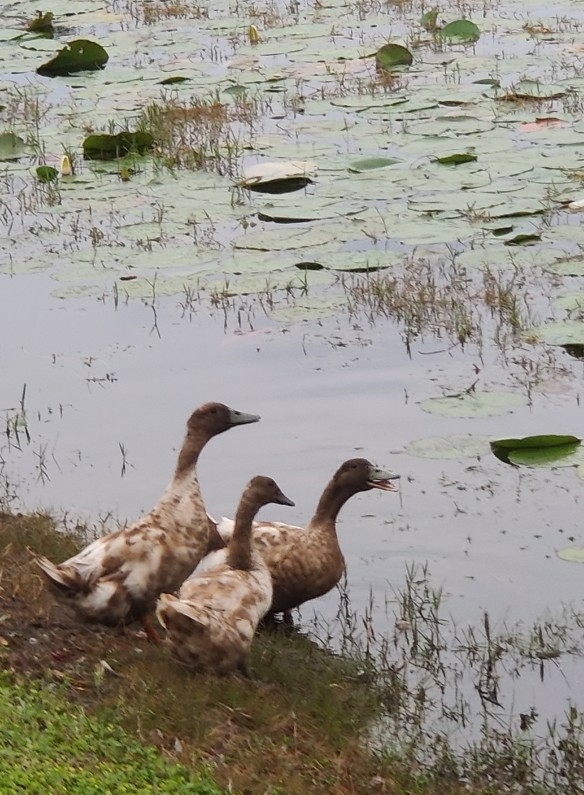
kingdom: Animalia
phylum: Chordata
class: Aves
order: Anseriformes
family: Anatidae
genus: Anas
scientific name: Anas platyrhynchos
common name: Mallard
